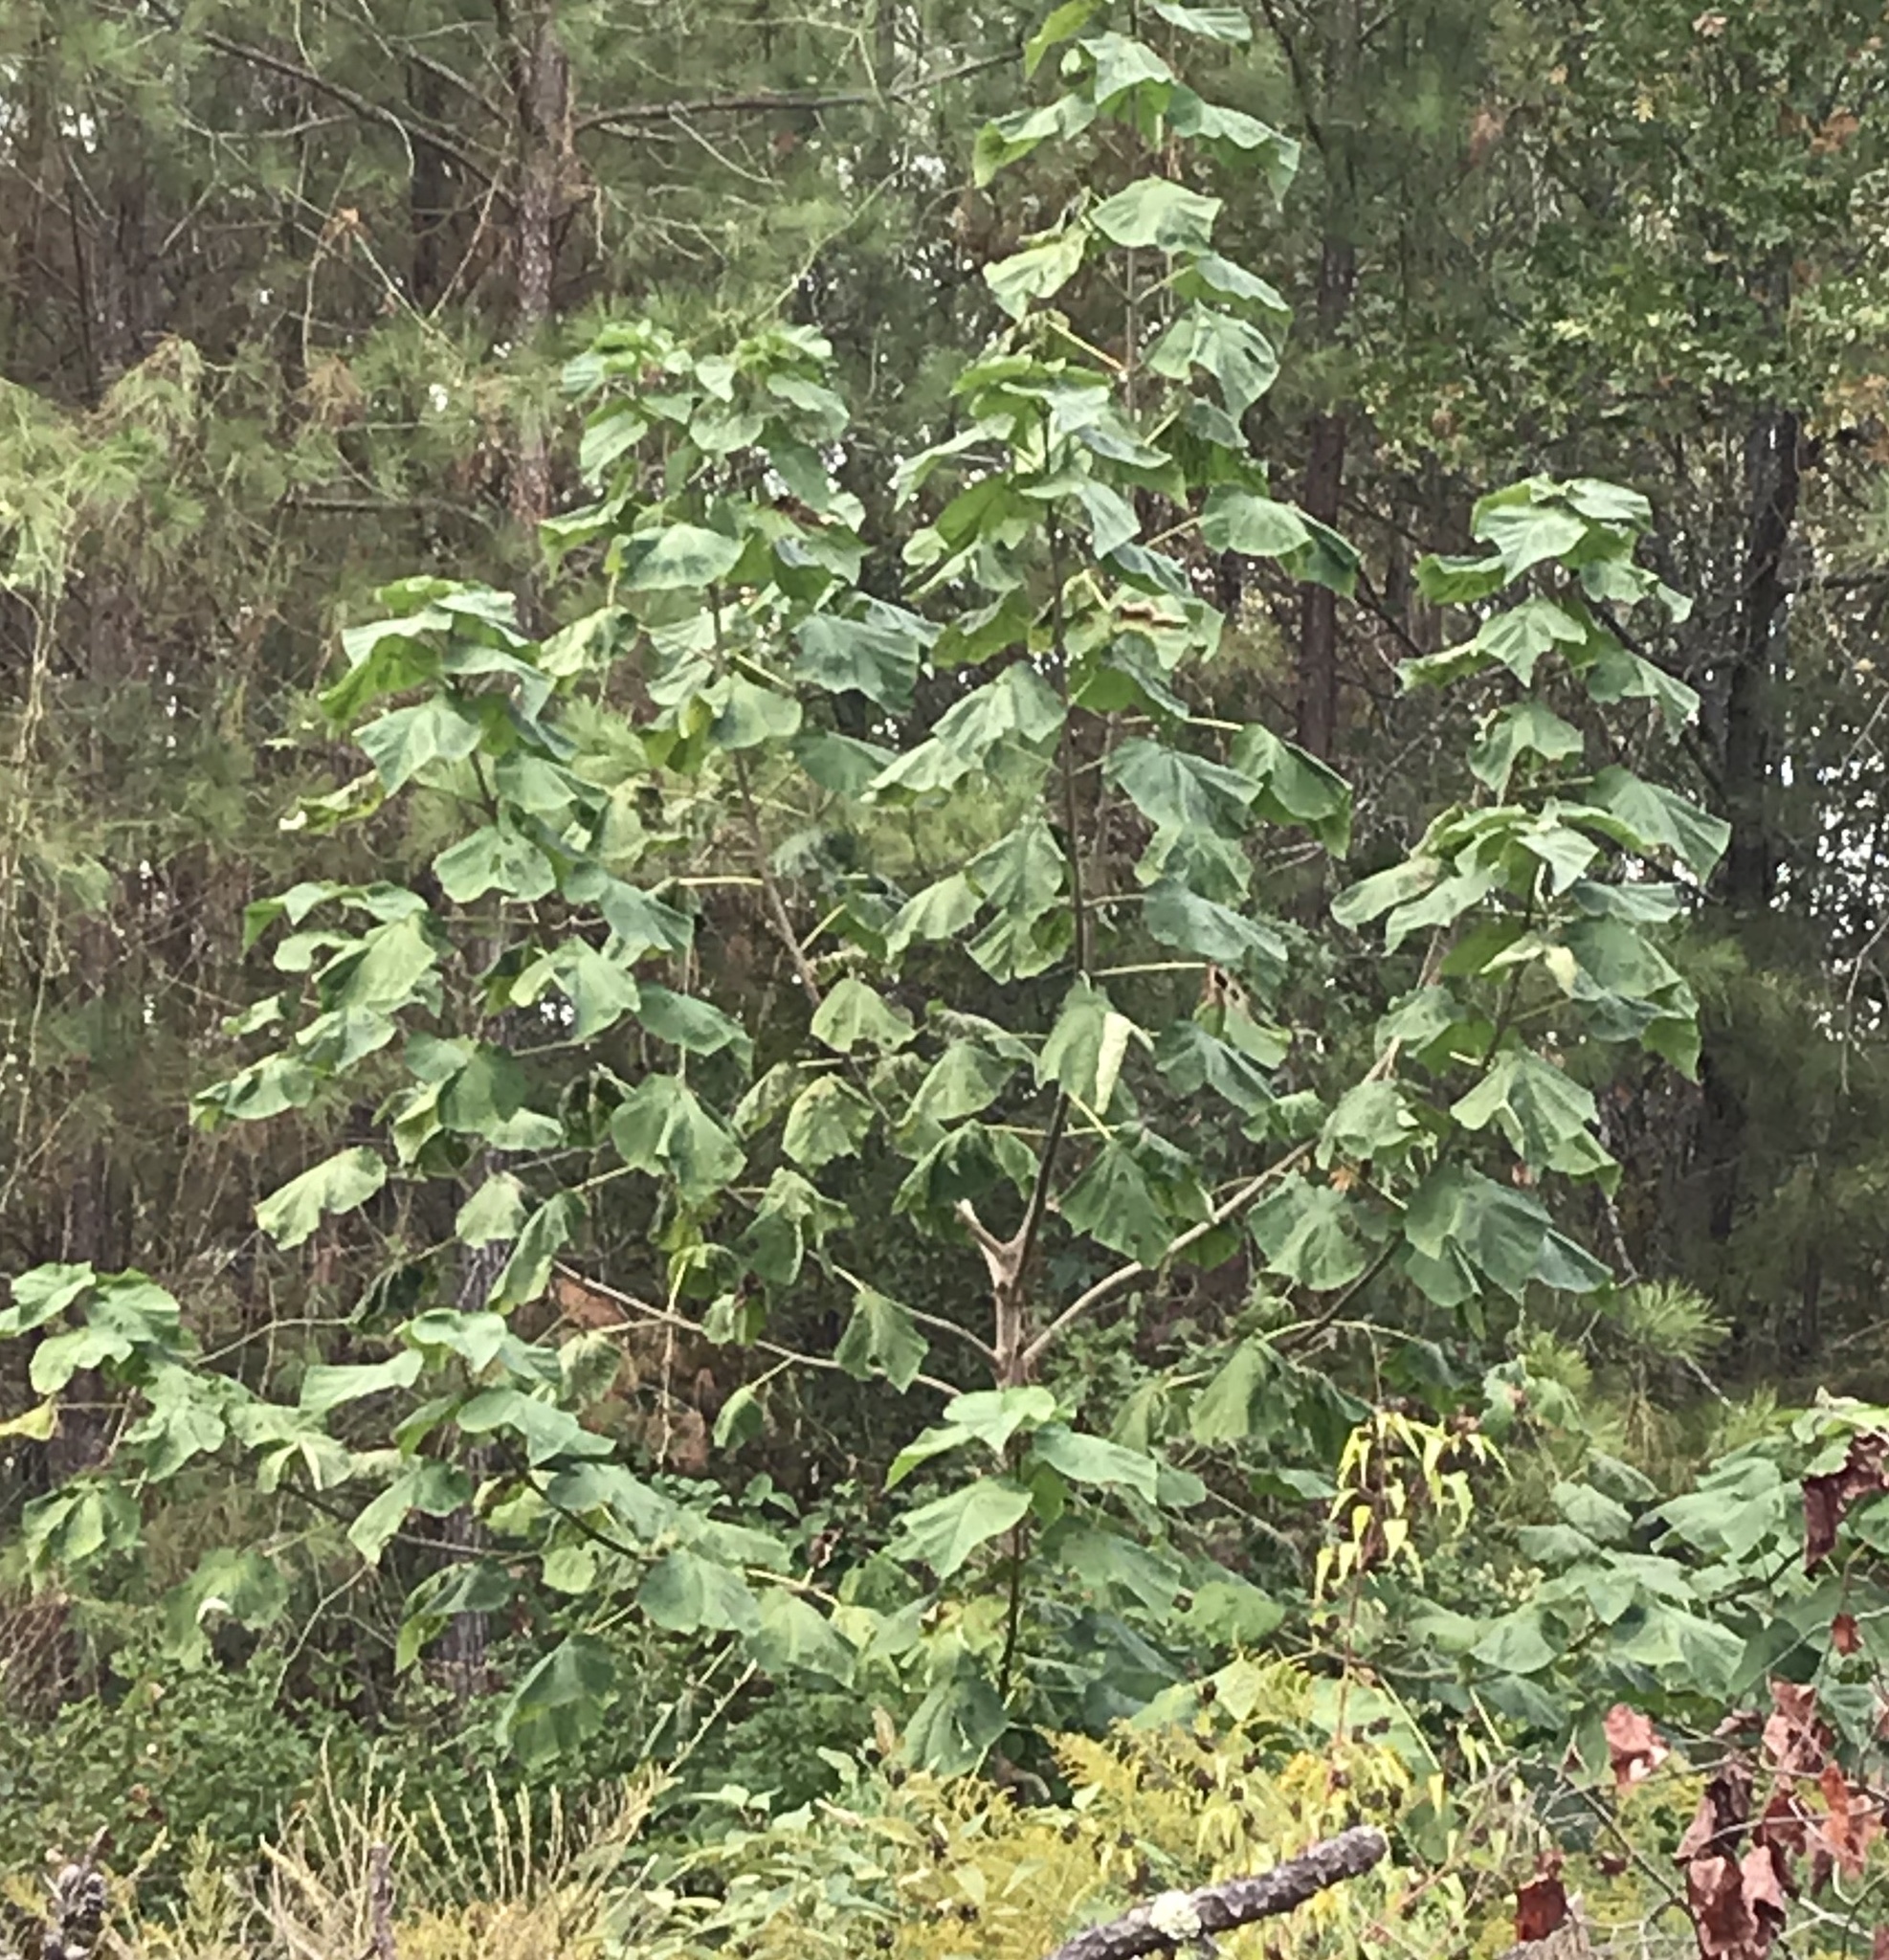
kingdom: Plantae
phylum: Tracheophyta
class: Magnoliopsida
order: Lamiales
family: Paulowniaceae
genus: Paulownia
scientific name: Paulownia tomentosa
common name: Foxglove-tree
